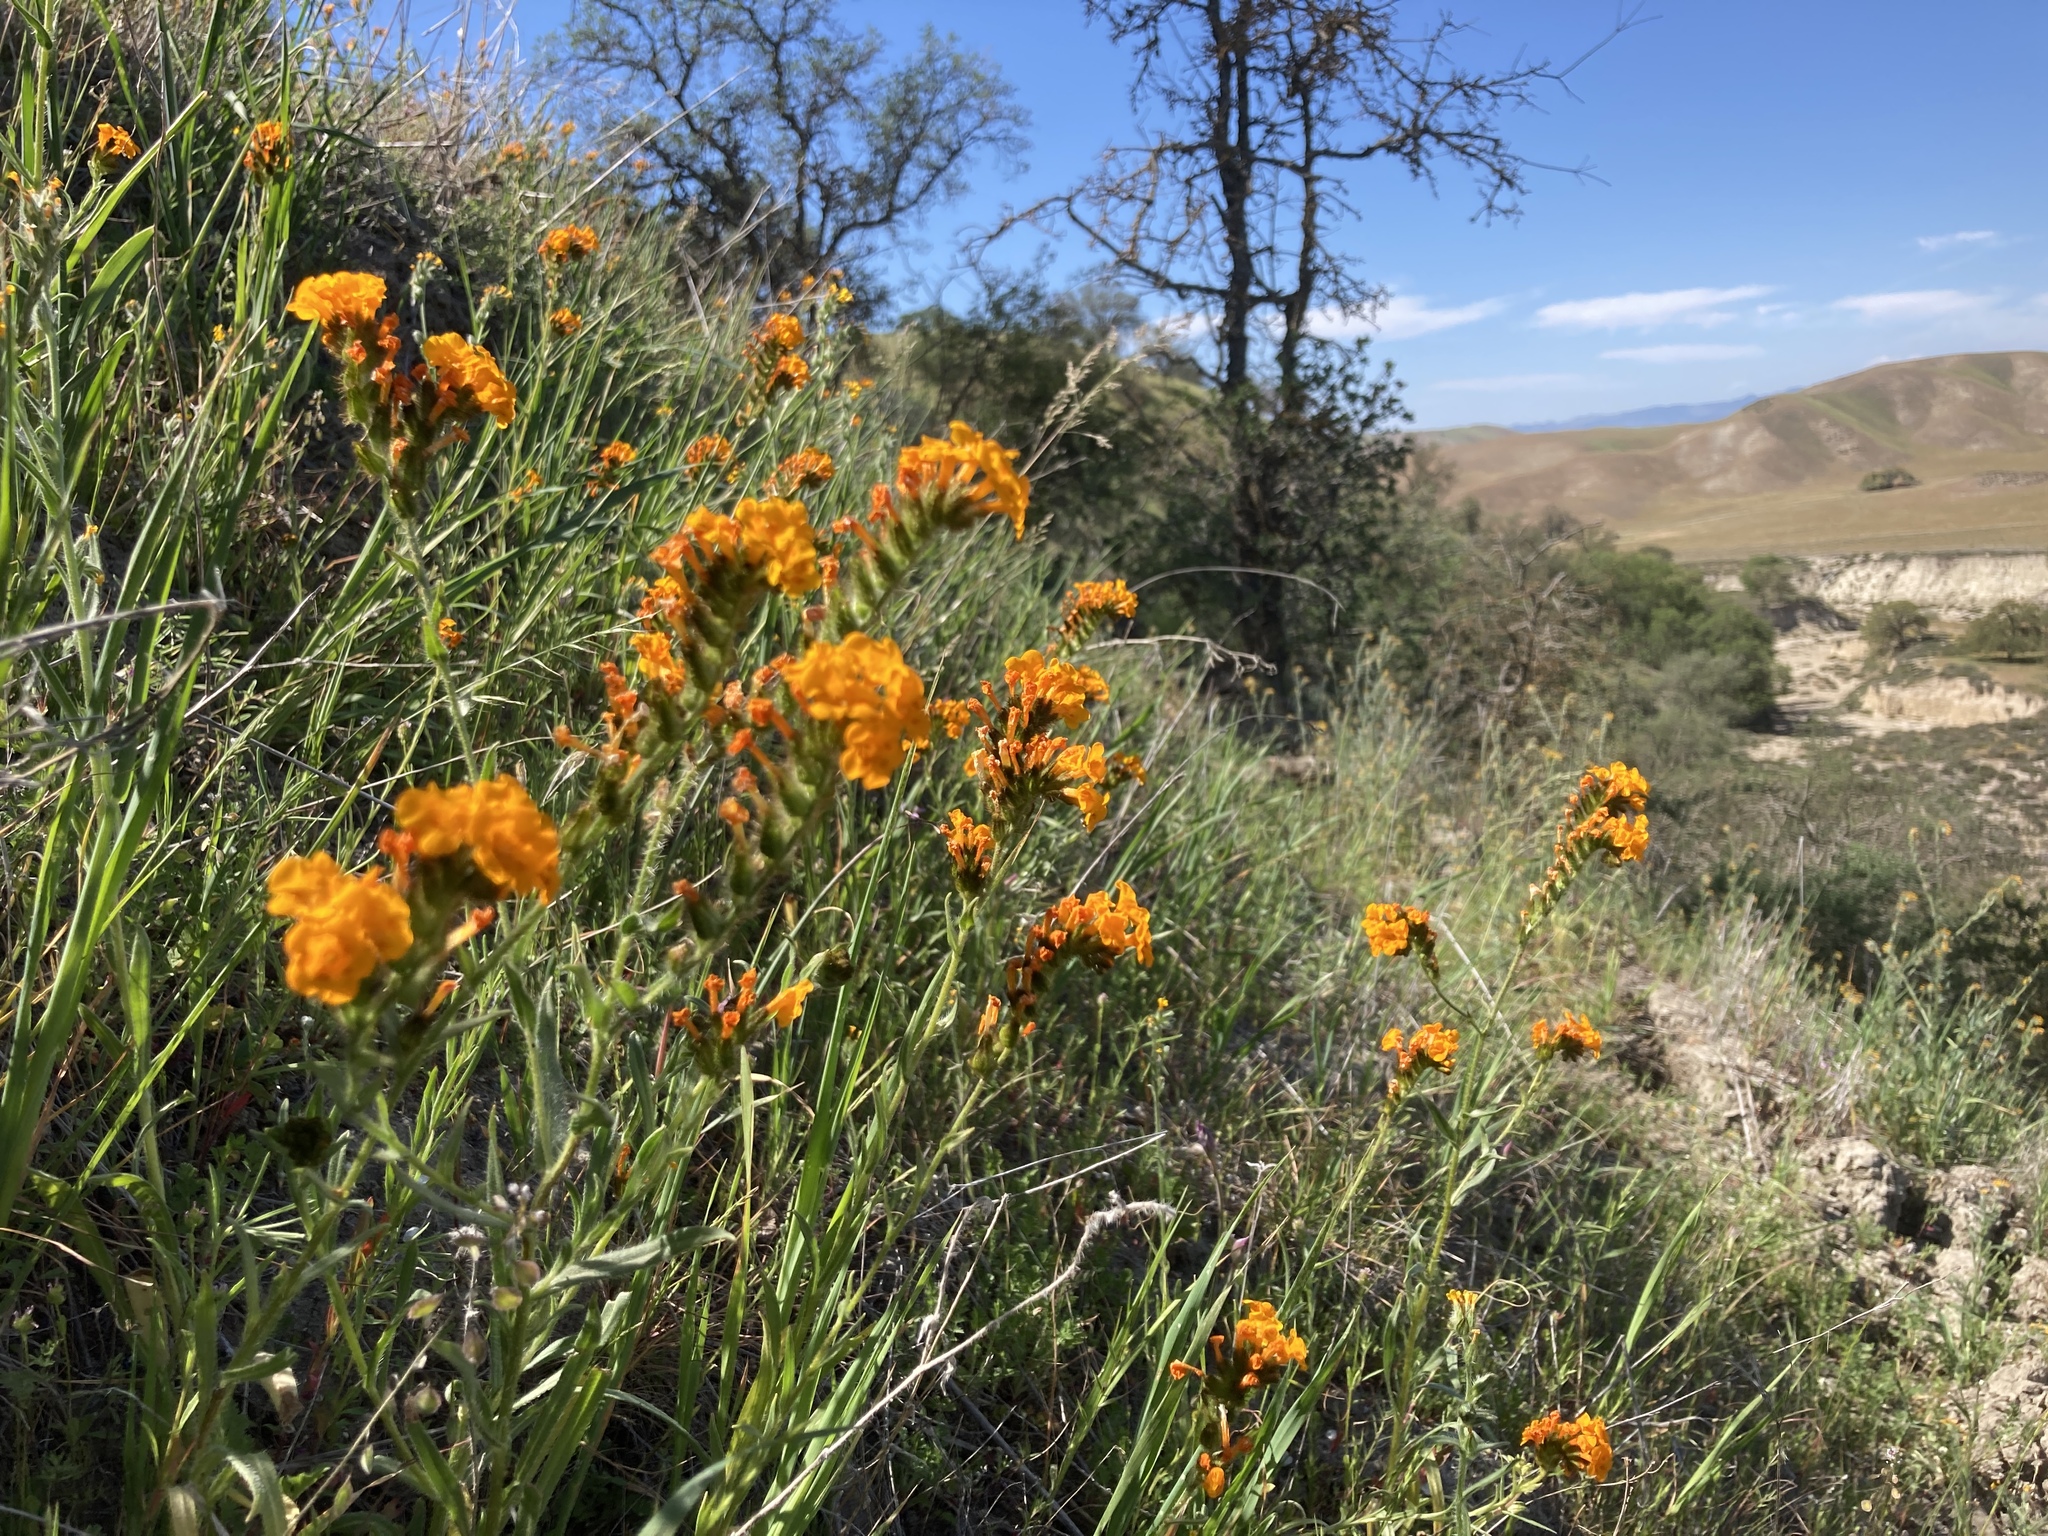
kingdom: Plantae
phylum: Tracheophyta
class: Magnoliopsida
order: Boraginales
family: Boraginaceae
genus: Amsinckia
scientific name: Amsinckia douglasiana
